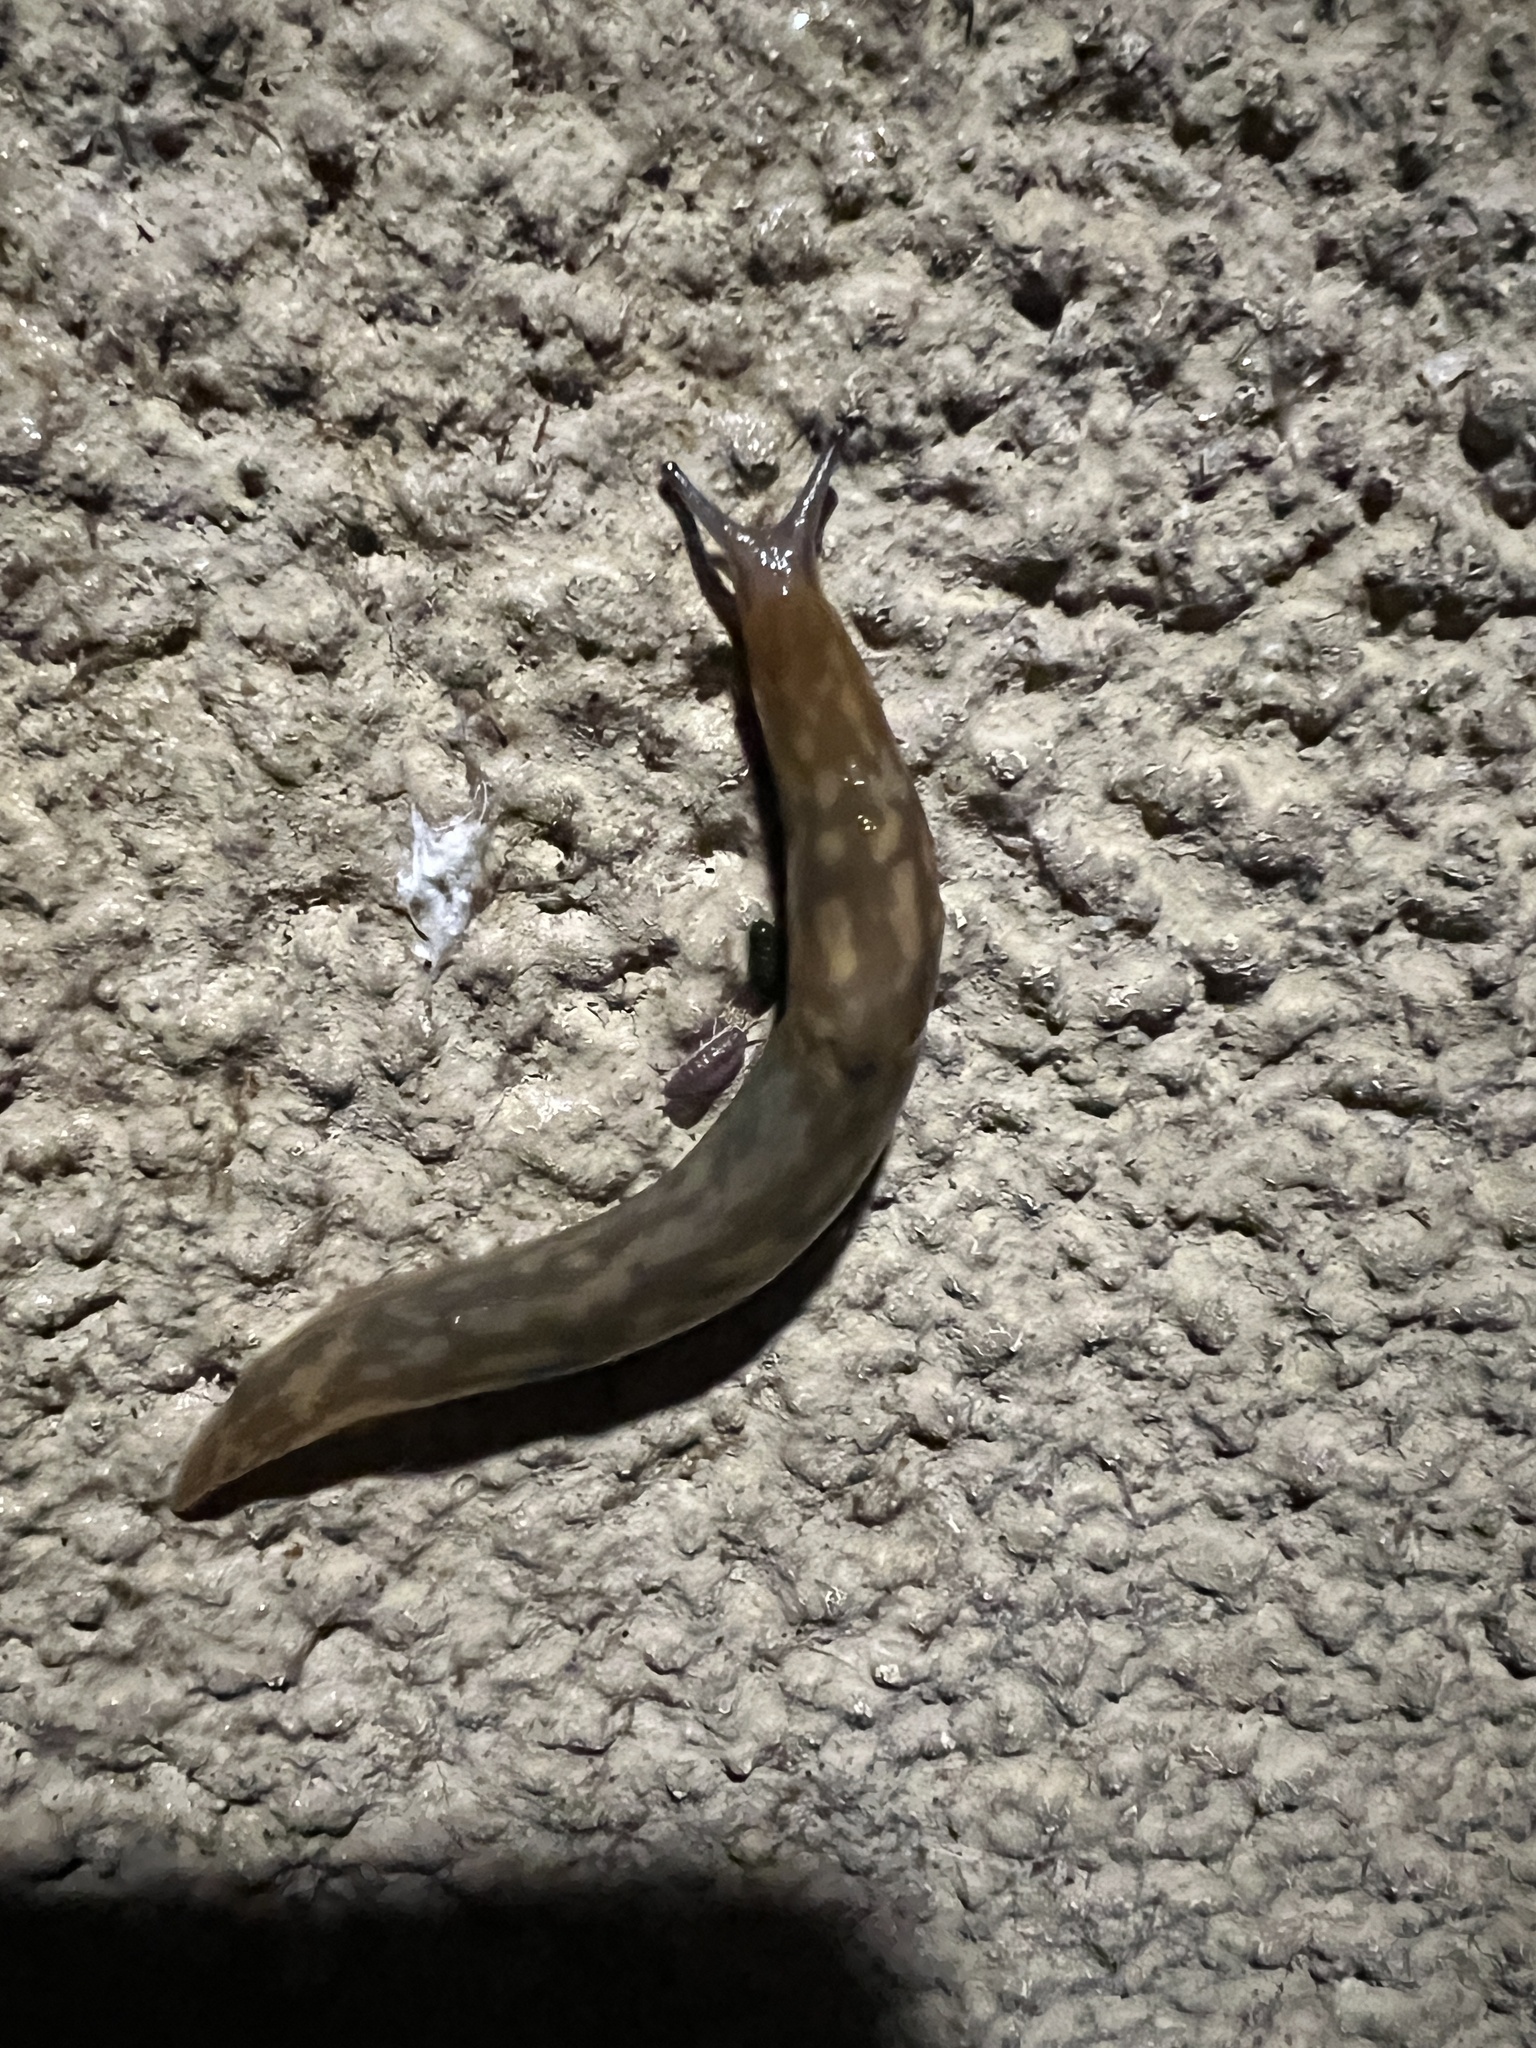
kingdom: Animalia
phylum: Mollusca
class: Gastropoda
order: Stylommatophora
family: Limacidae
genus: Limacus
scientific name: Limacus maculatus
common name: Irish yellow slug
